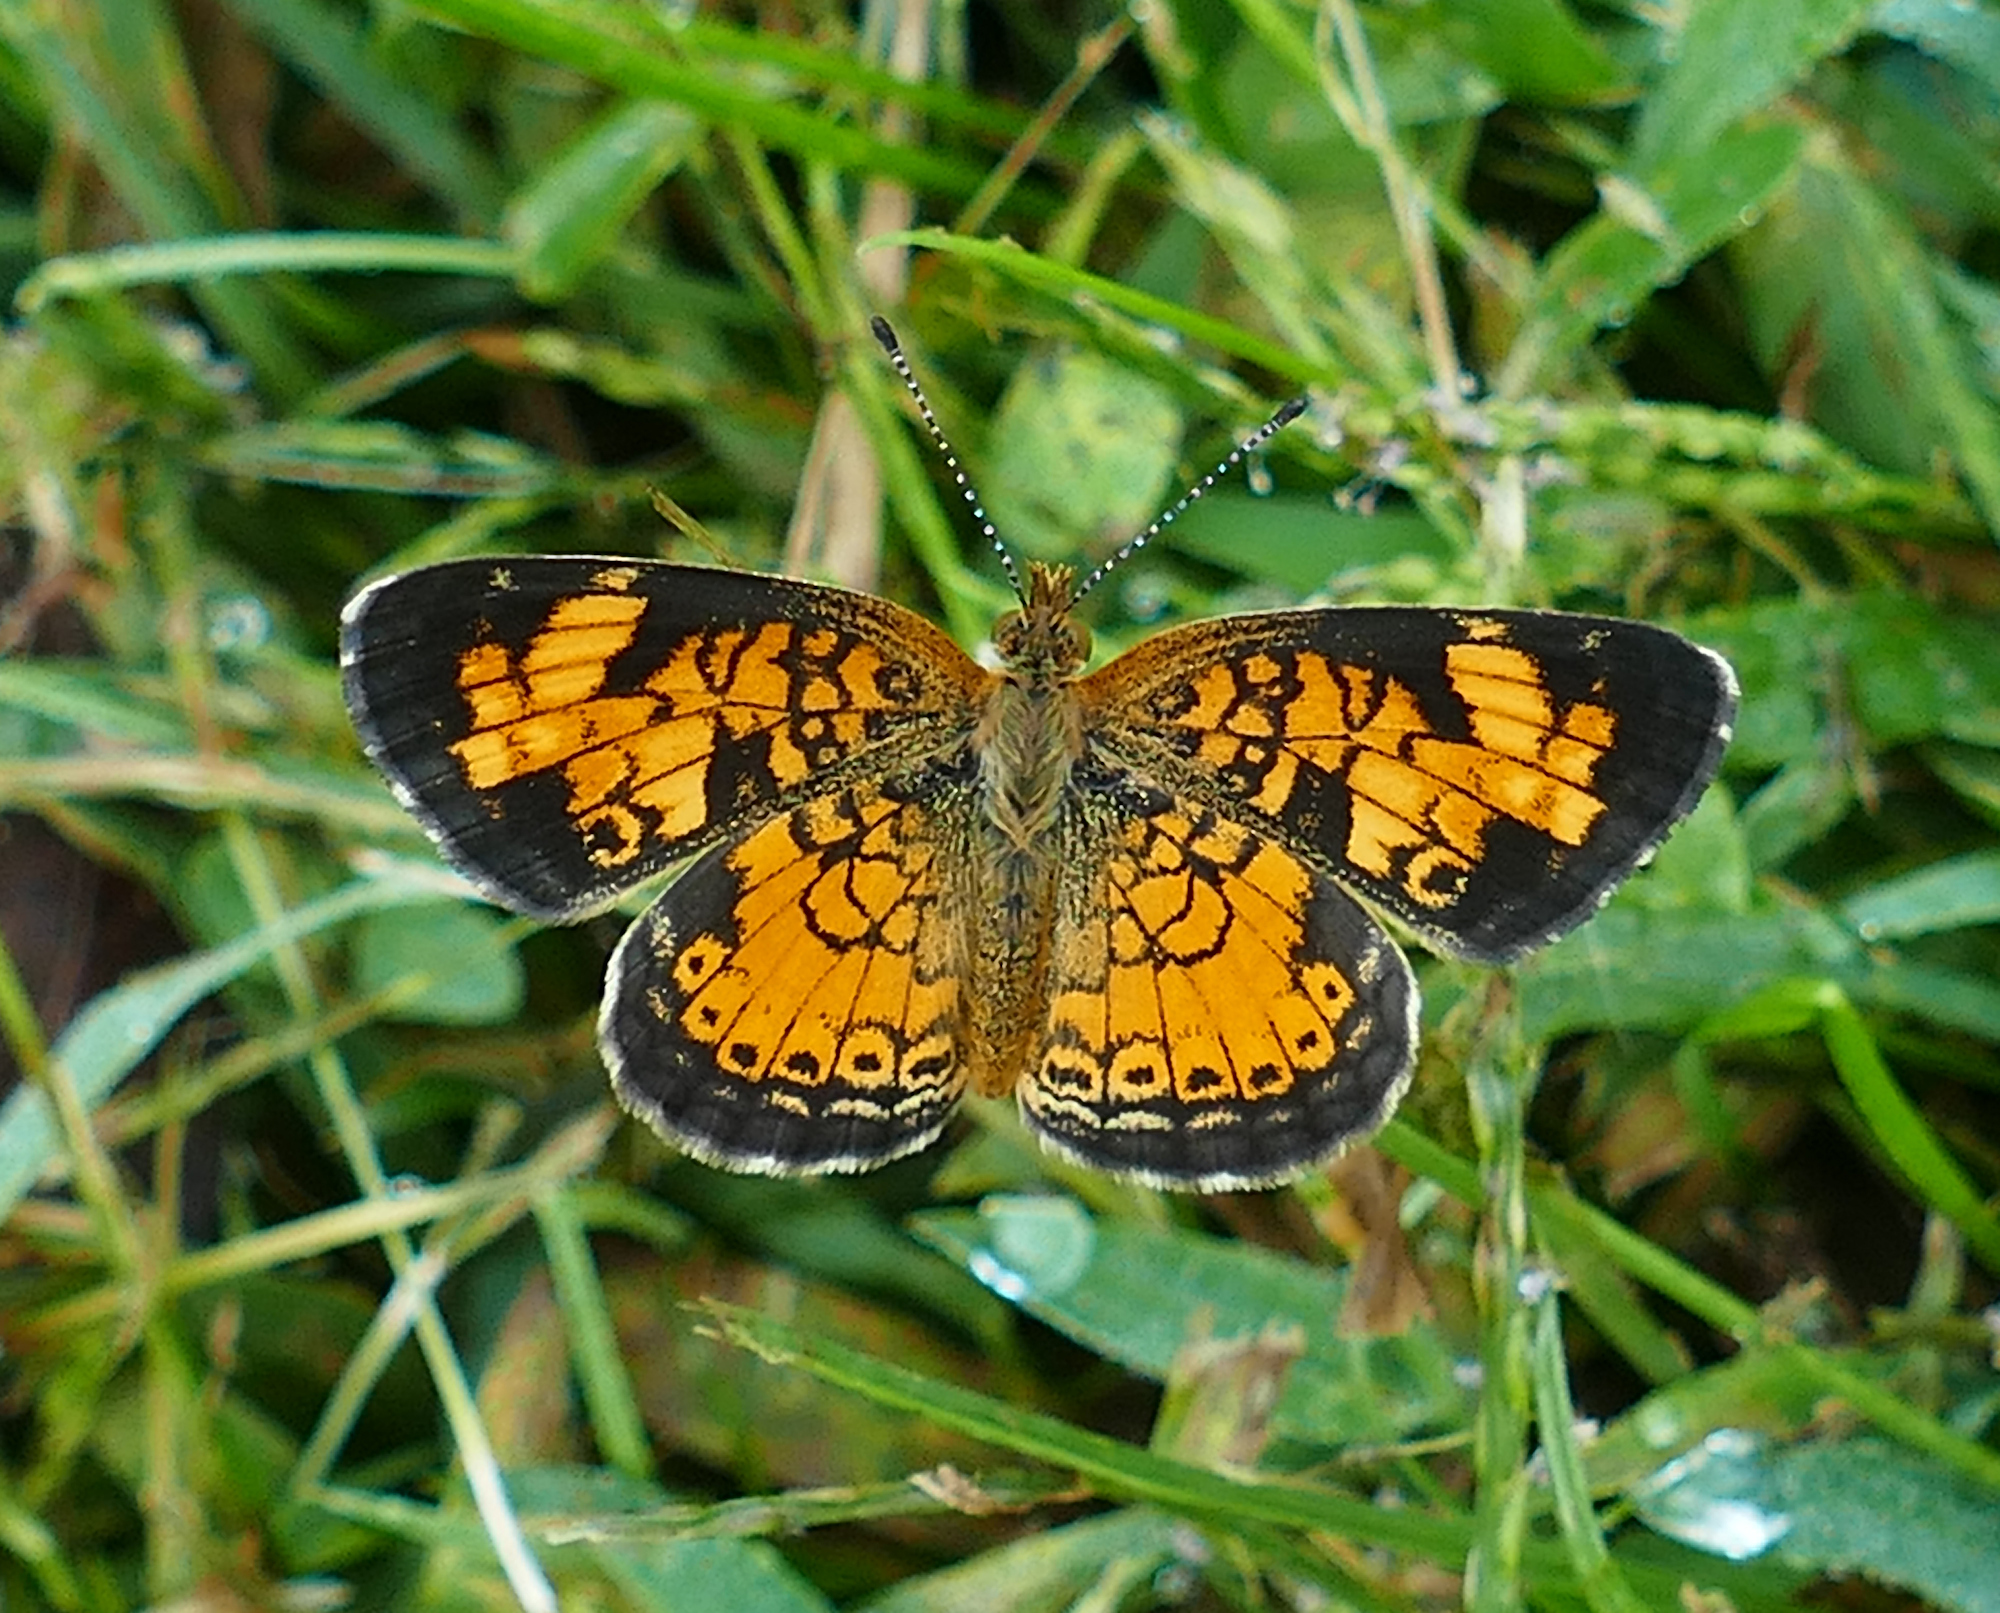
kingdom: Animalia
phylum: Arthropoda
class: Insecta
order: Lepidoptera
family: Nymphalidae
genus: Phyciodes
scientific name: Phyciodes tharos
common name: Pearl crescent
